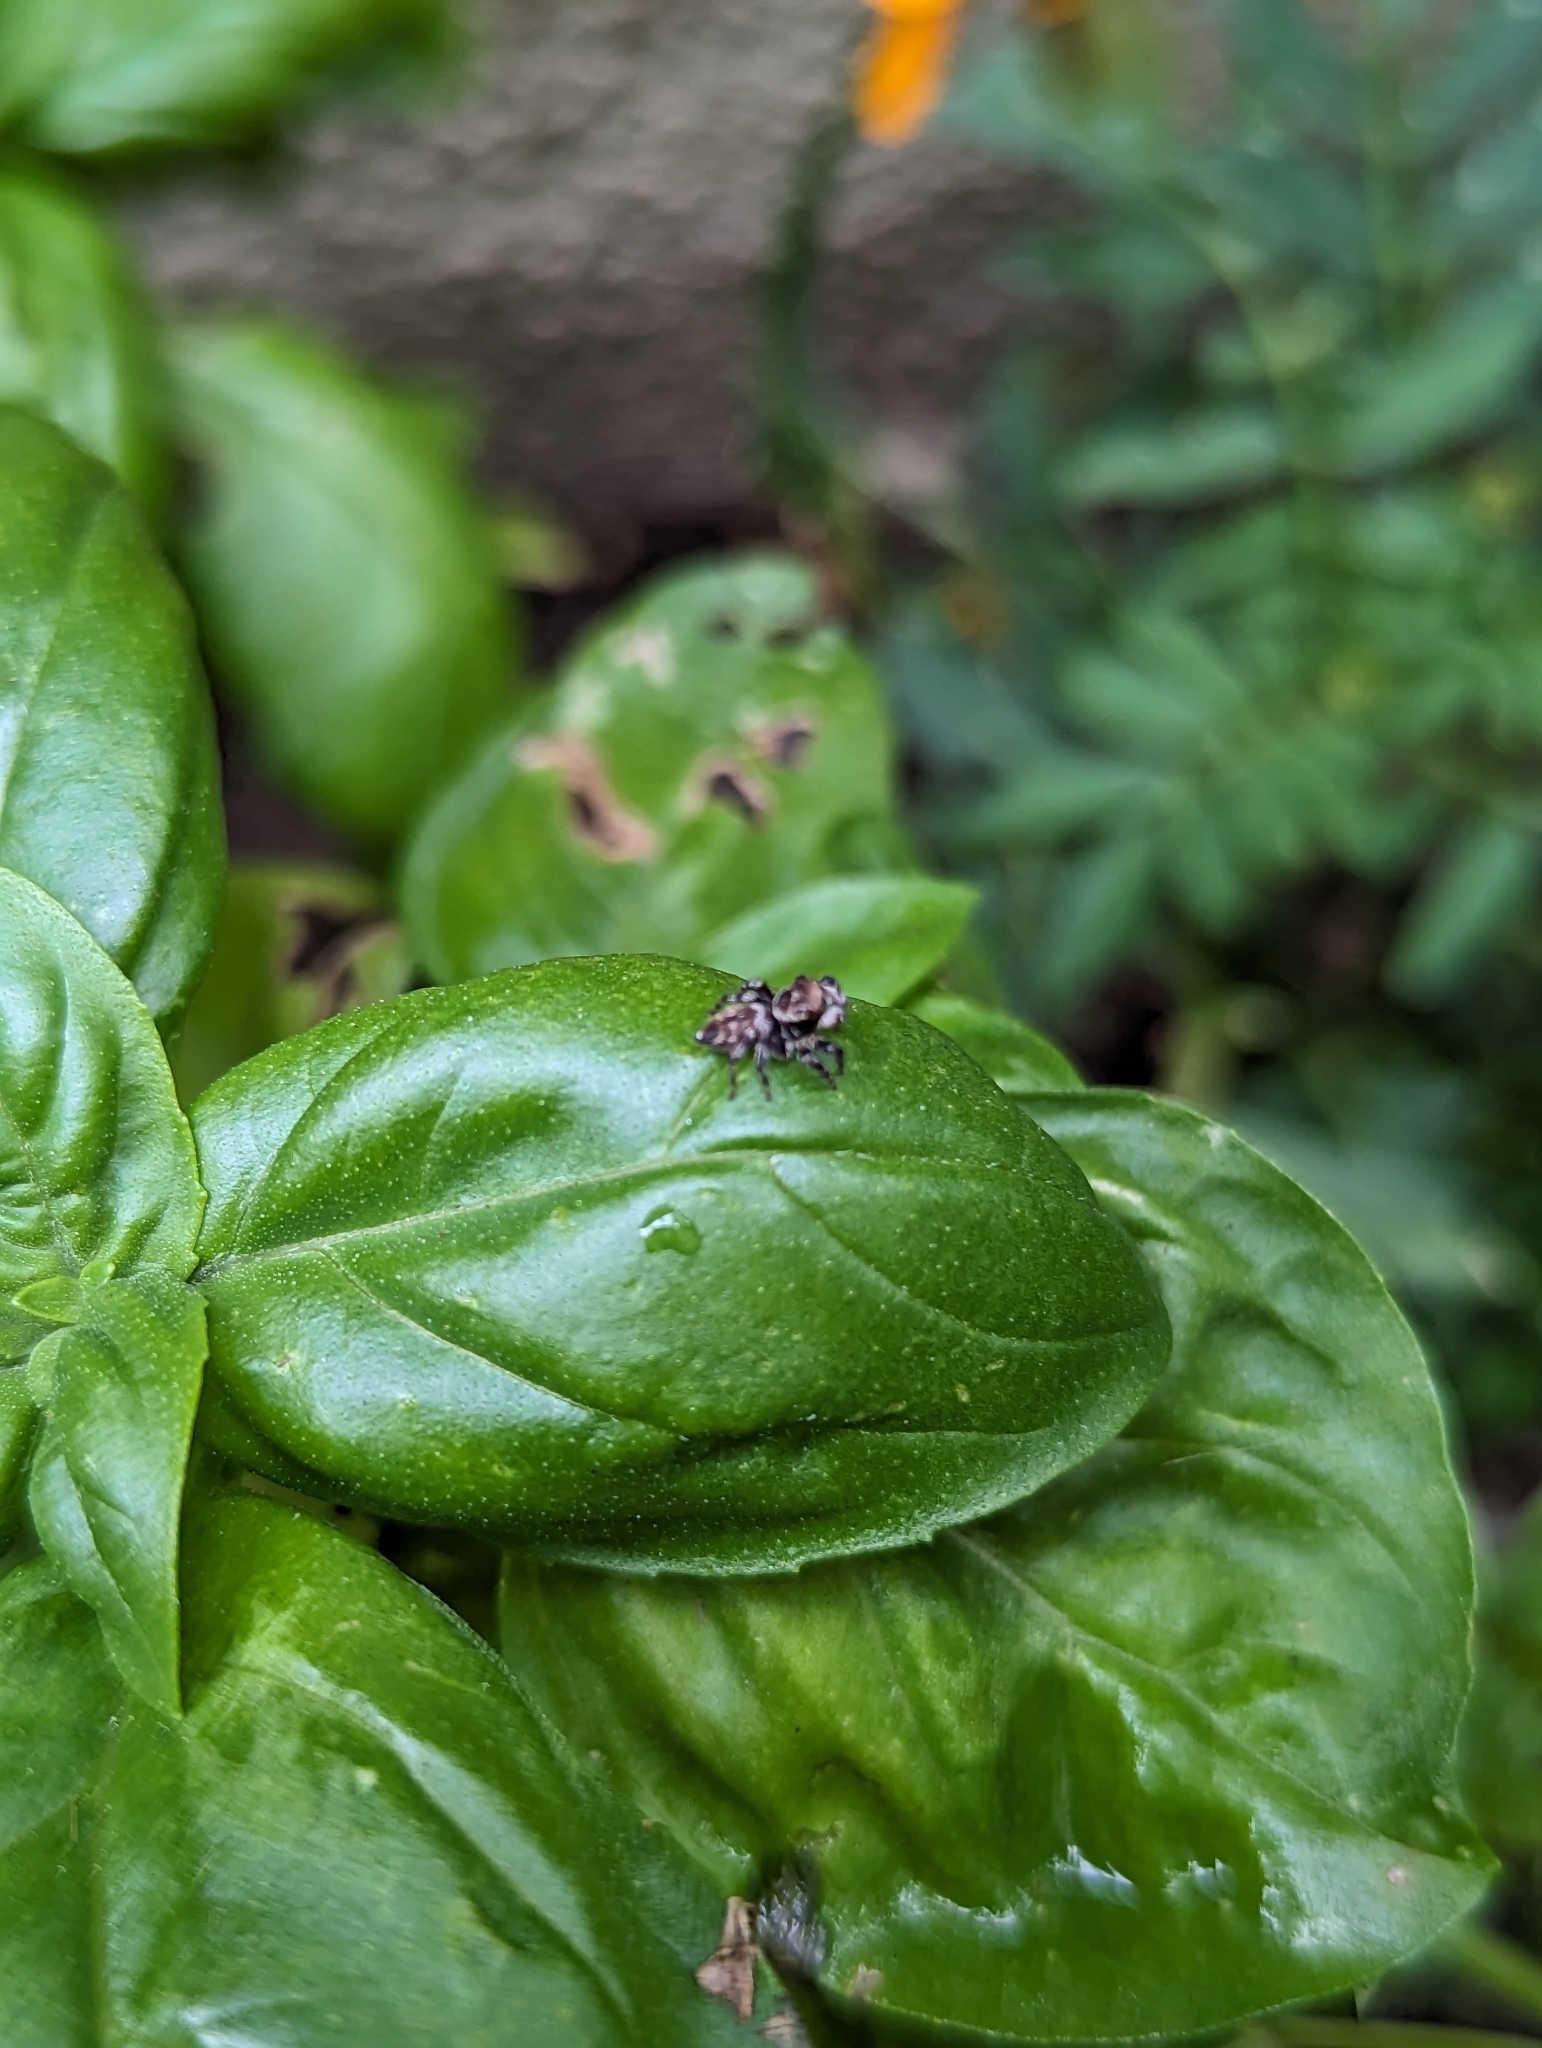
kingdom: Animalia
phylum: Arthropoda
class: Arachnida
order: Araneae
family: Salticidae
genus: Maratus
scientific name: Maratus griseus
